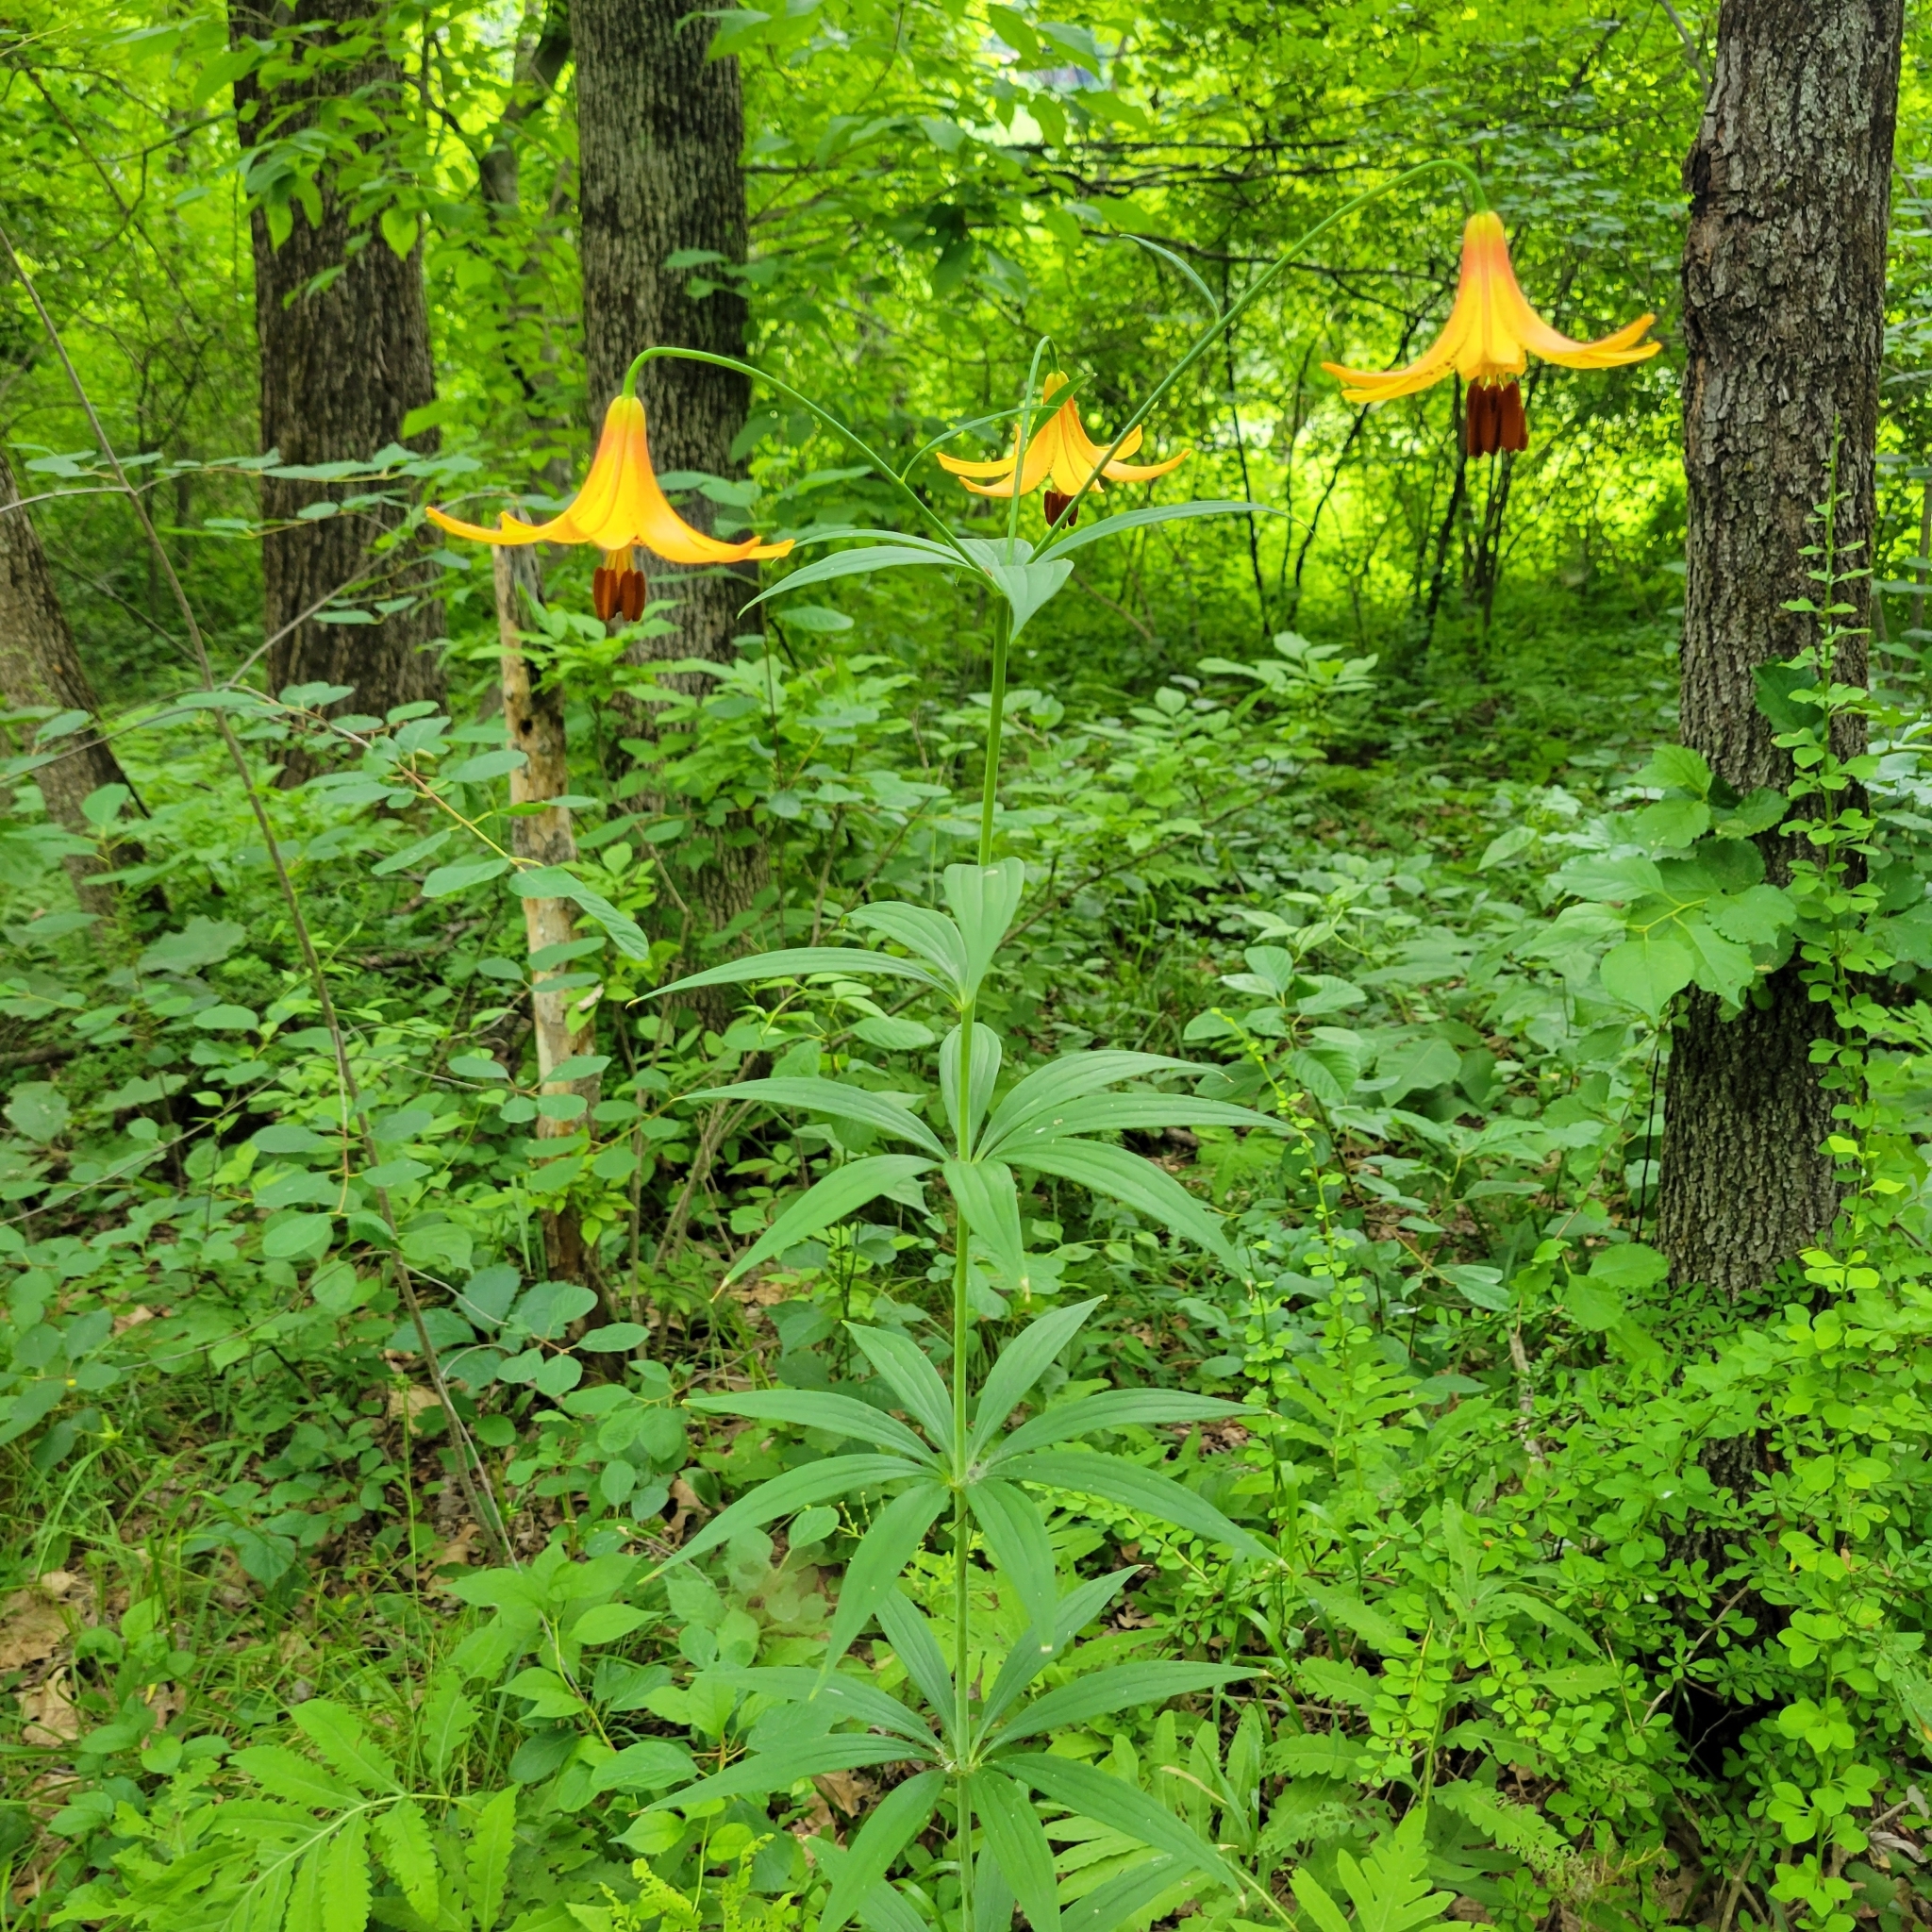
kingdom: Plantae
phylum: Tracheophyta
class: Liliopsida
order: Liliales
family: Liliaceae
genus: Lilium
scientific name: Lilium canadense
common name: Canada lily
